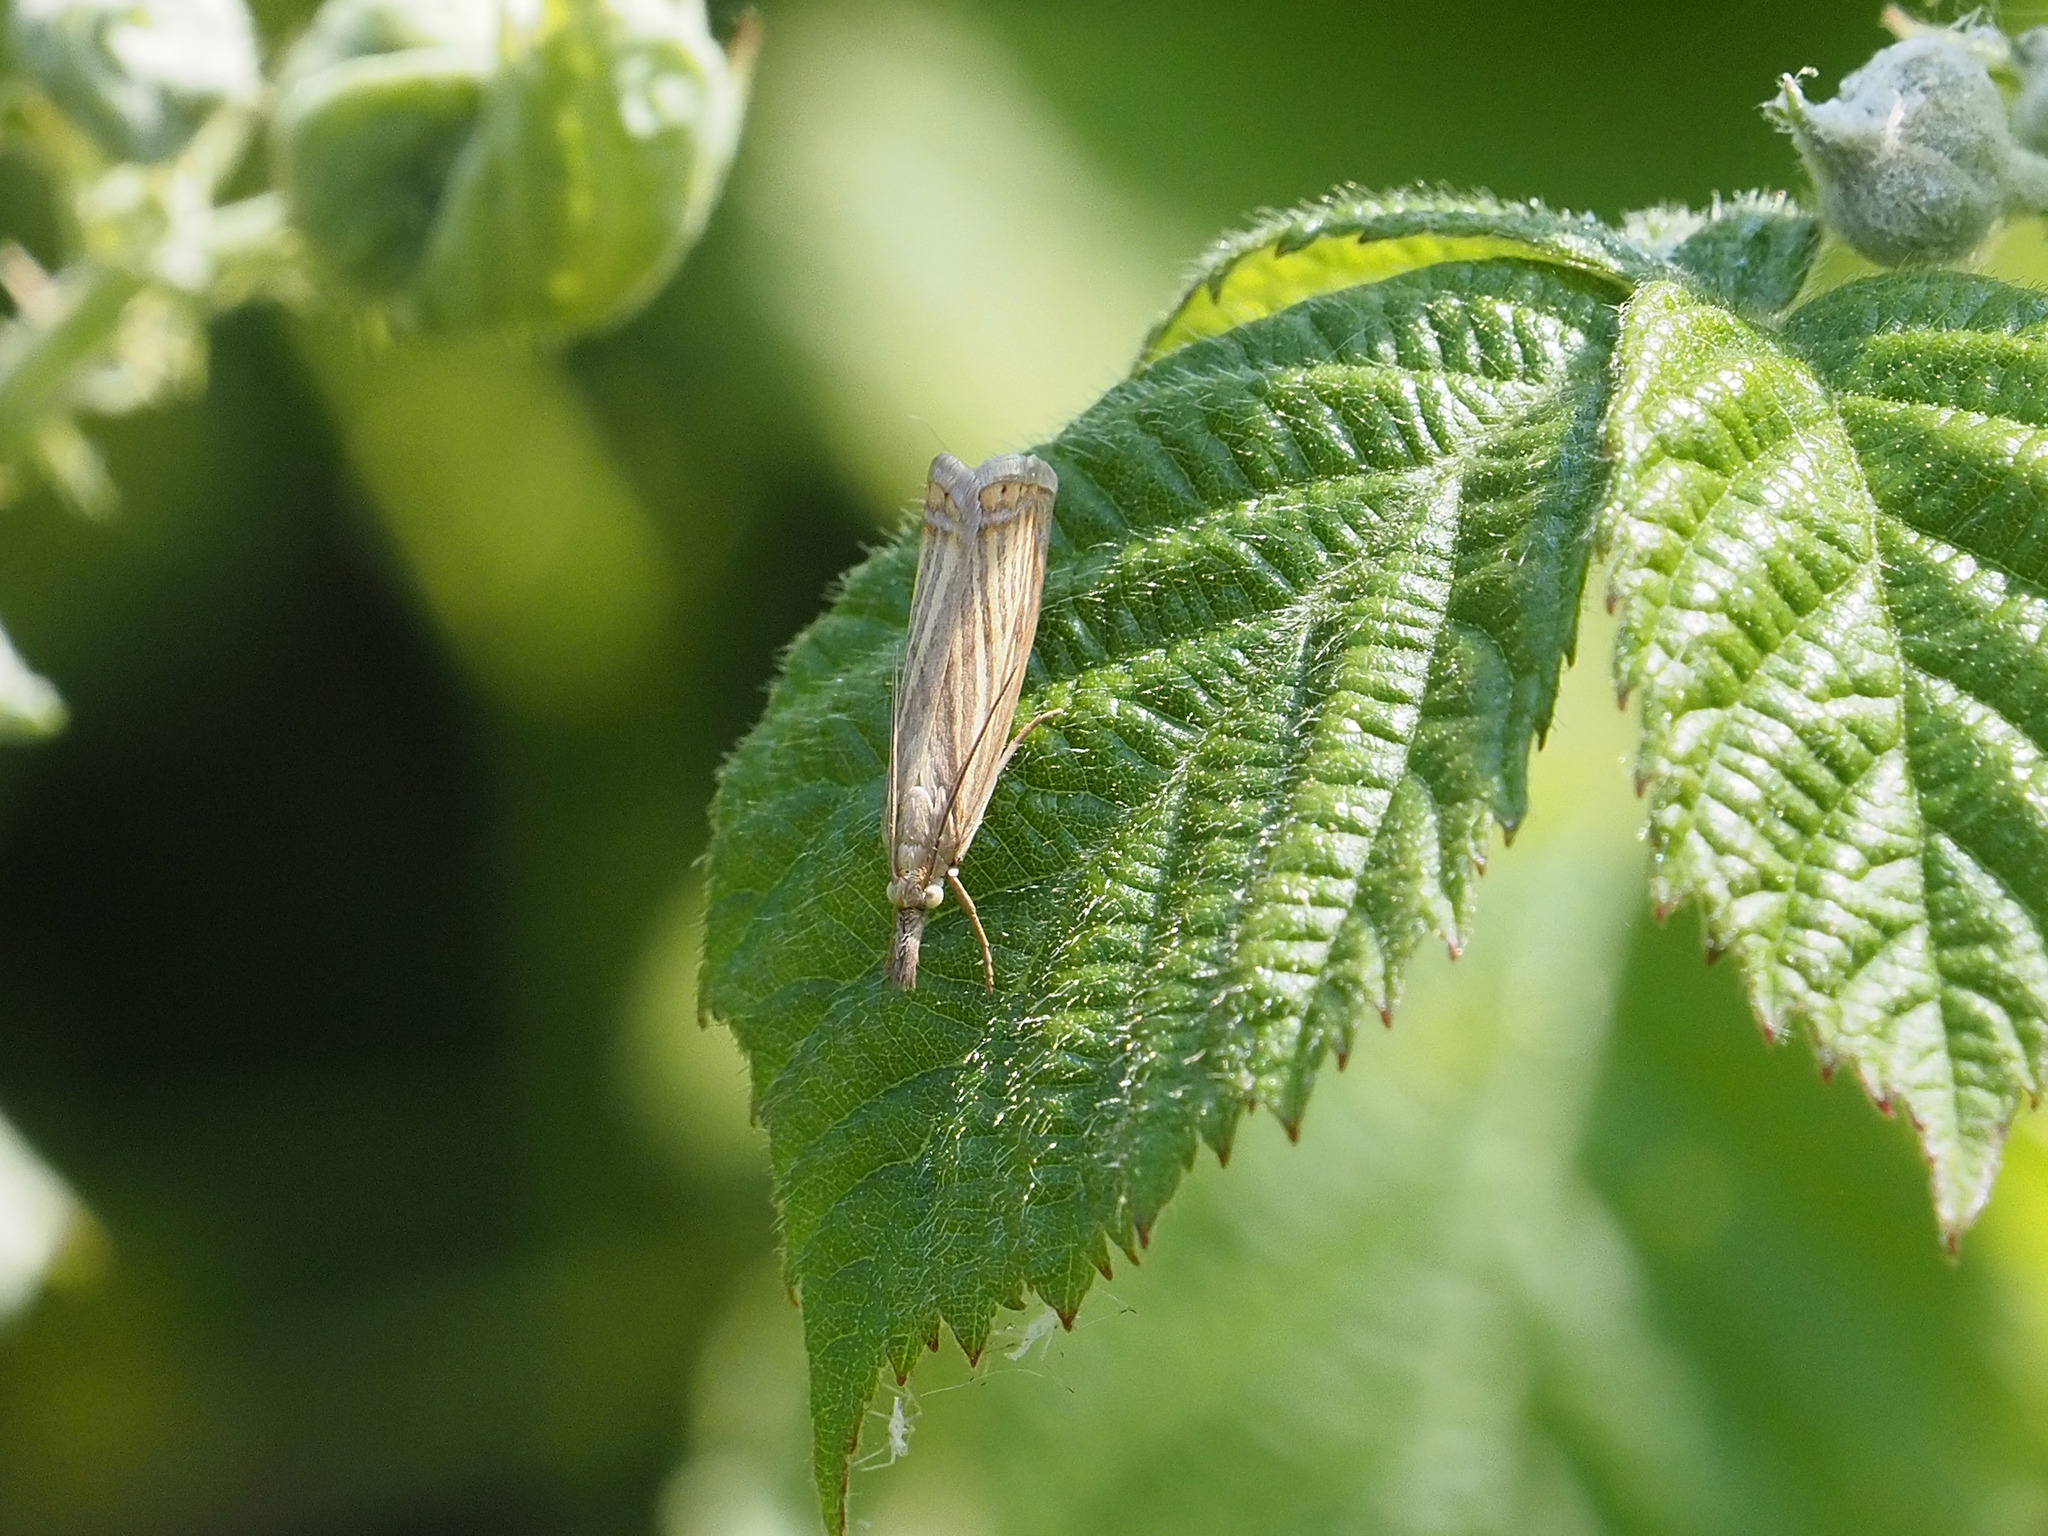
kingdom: Animalia
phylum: Arthropoda
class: Insecta
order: Lepidoptera
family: Crambidae
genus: Chrysoteuchia
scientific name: Chrysoteuchia culmella
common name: Garden grass-veneer
